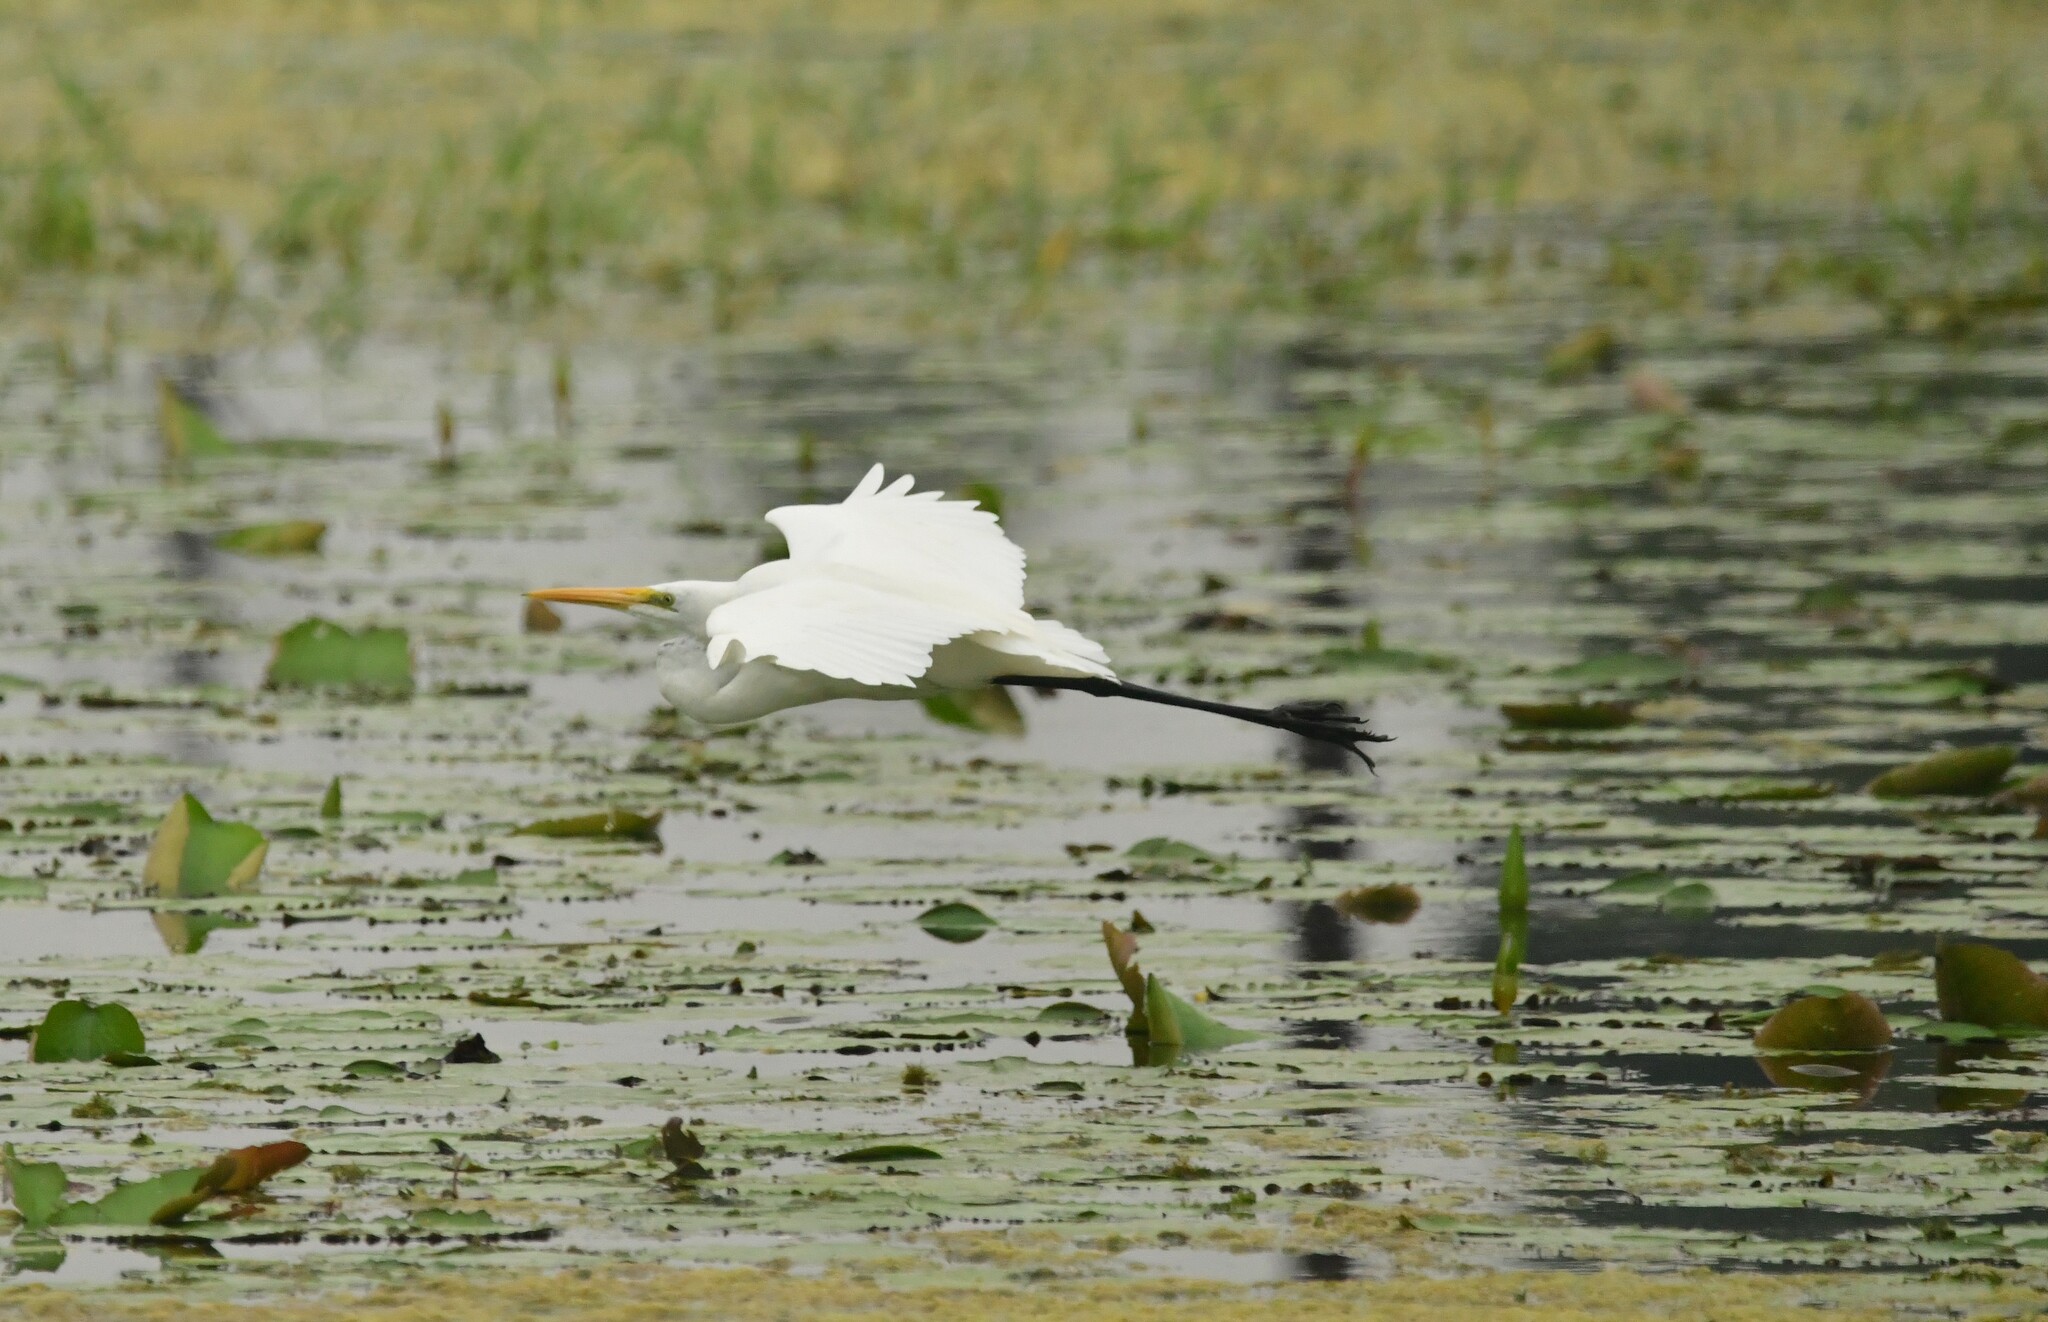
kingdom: Animalia
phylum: Chordata
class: Aves
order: Pelecaniformes
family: Ardeidae
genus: Ardea
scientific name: Ardea alba
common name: Great egret
